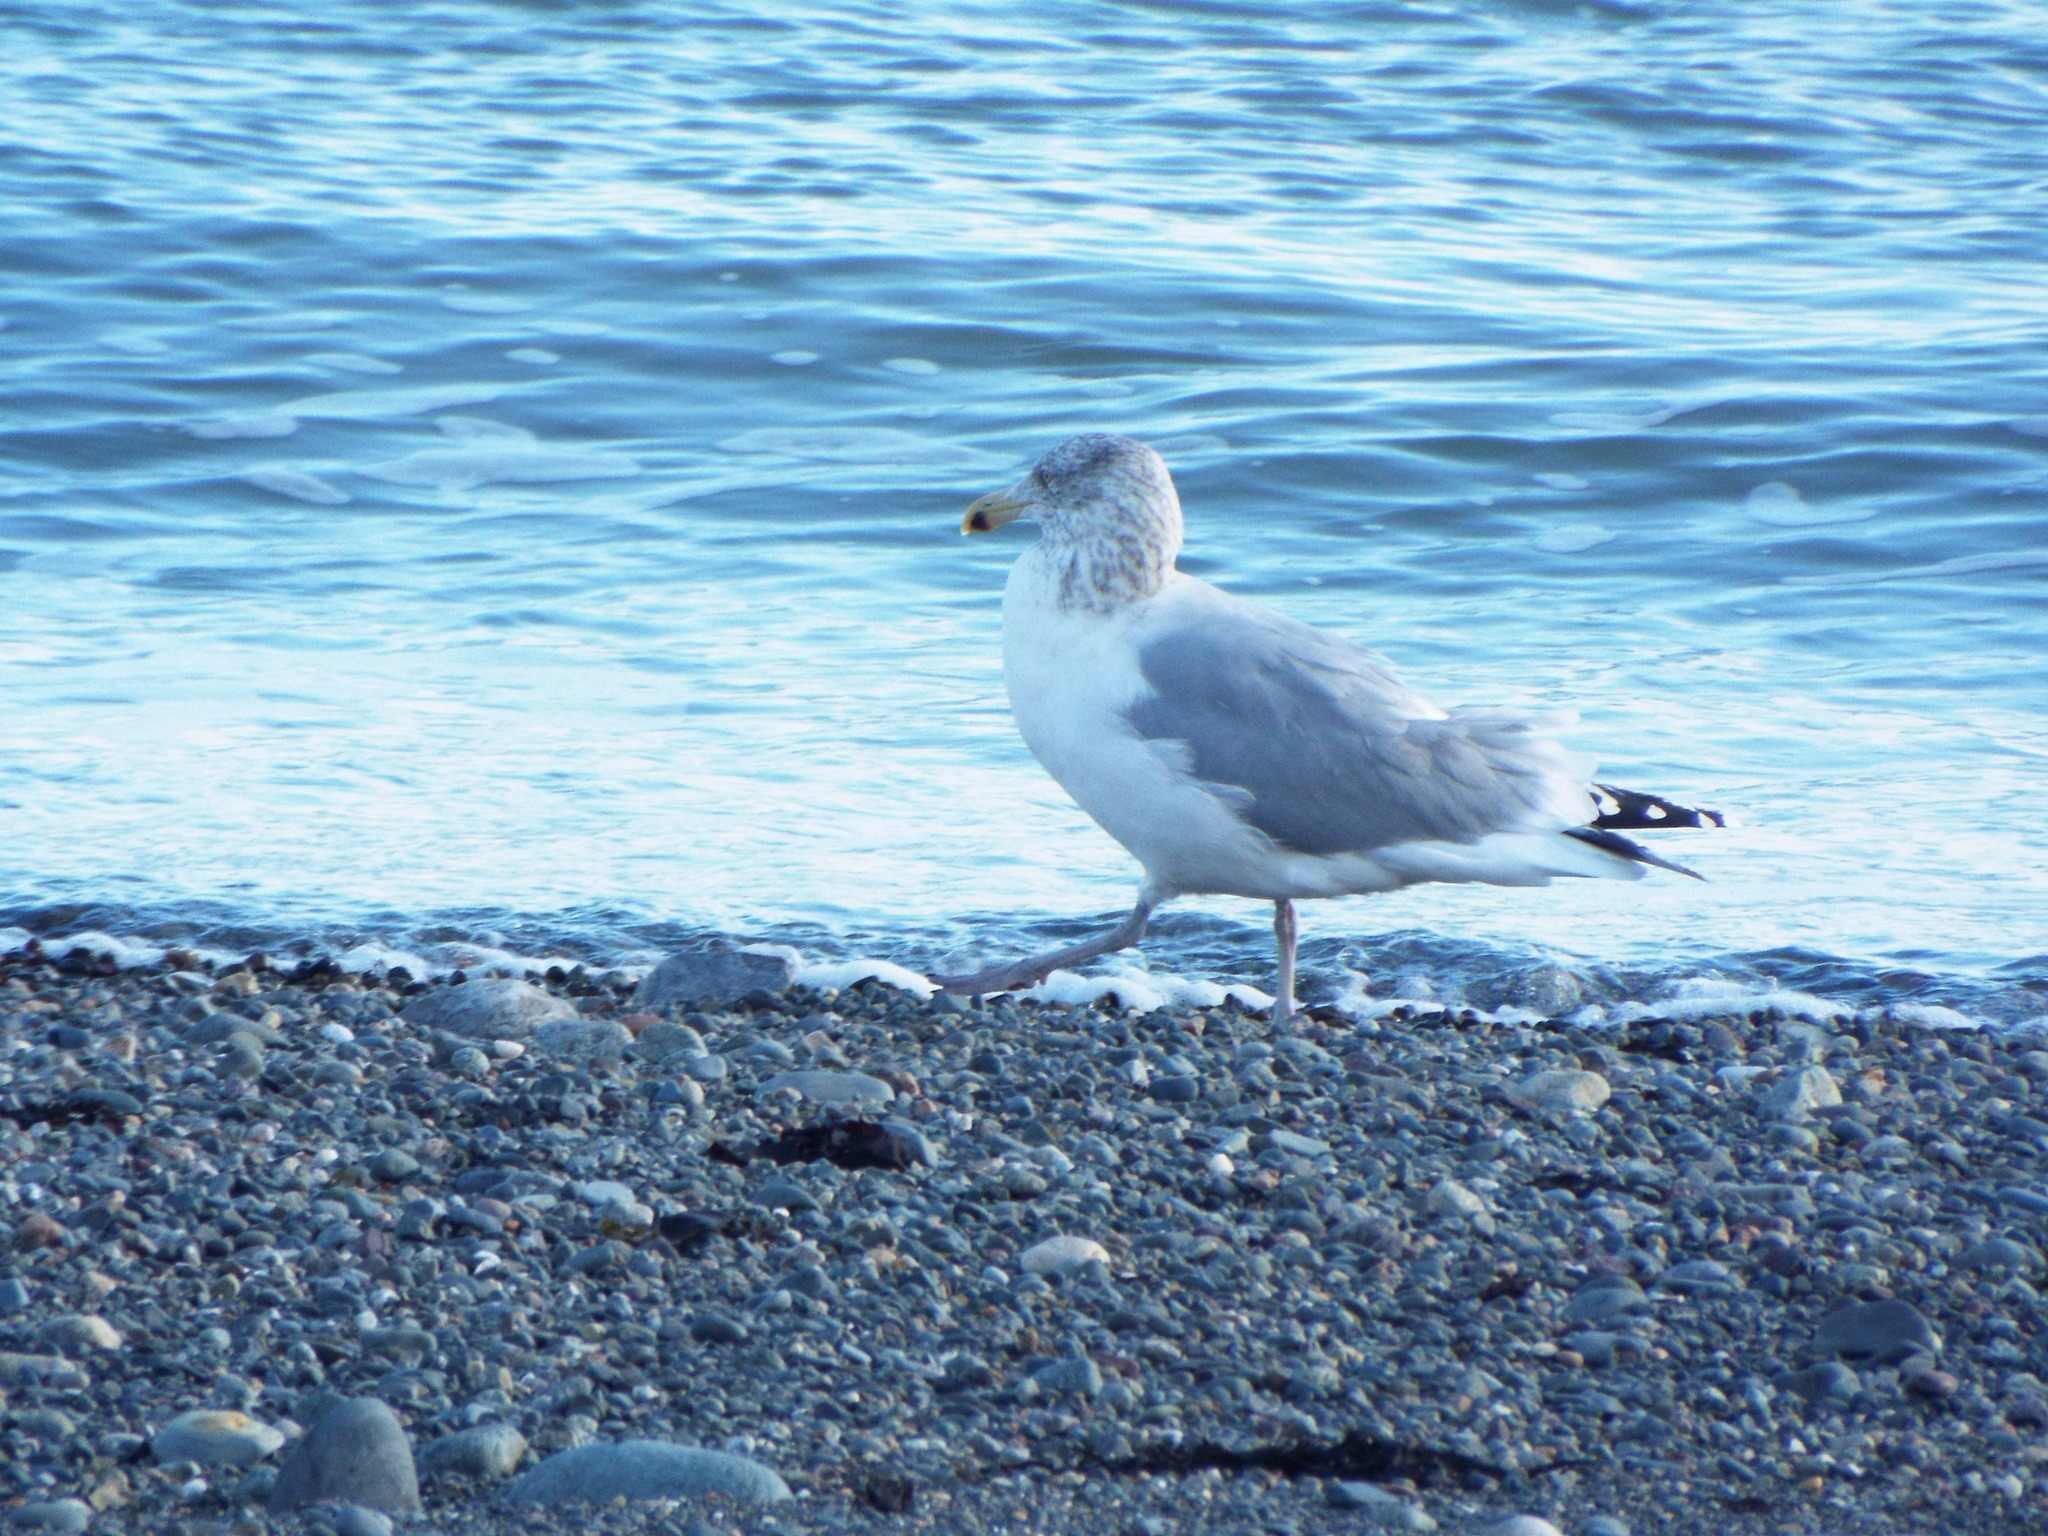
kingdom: Animalia
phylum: Chordata
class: Aves
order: Charadriiformes
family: Laridae
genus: Larus
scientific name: Larus smithsonianus
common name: American herring gull
